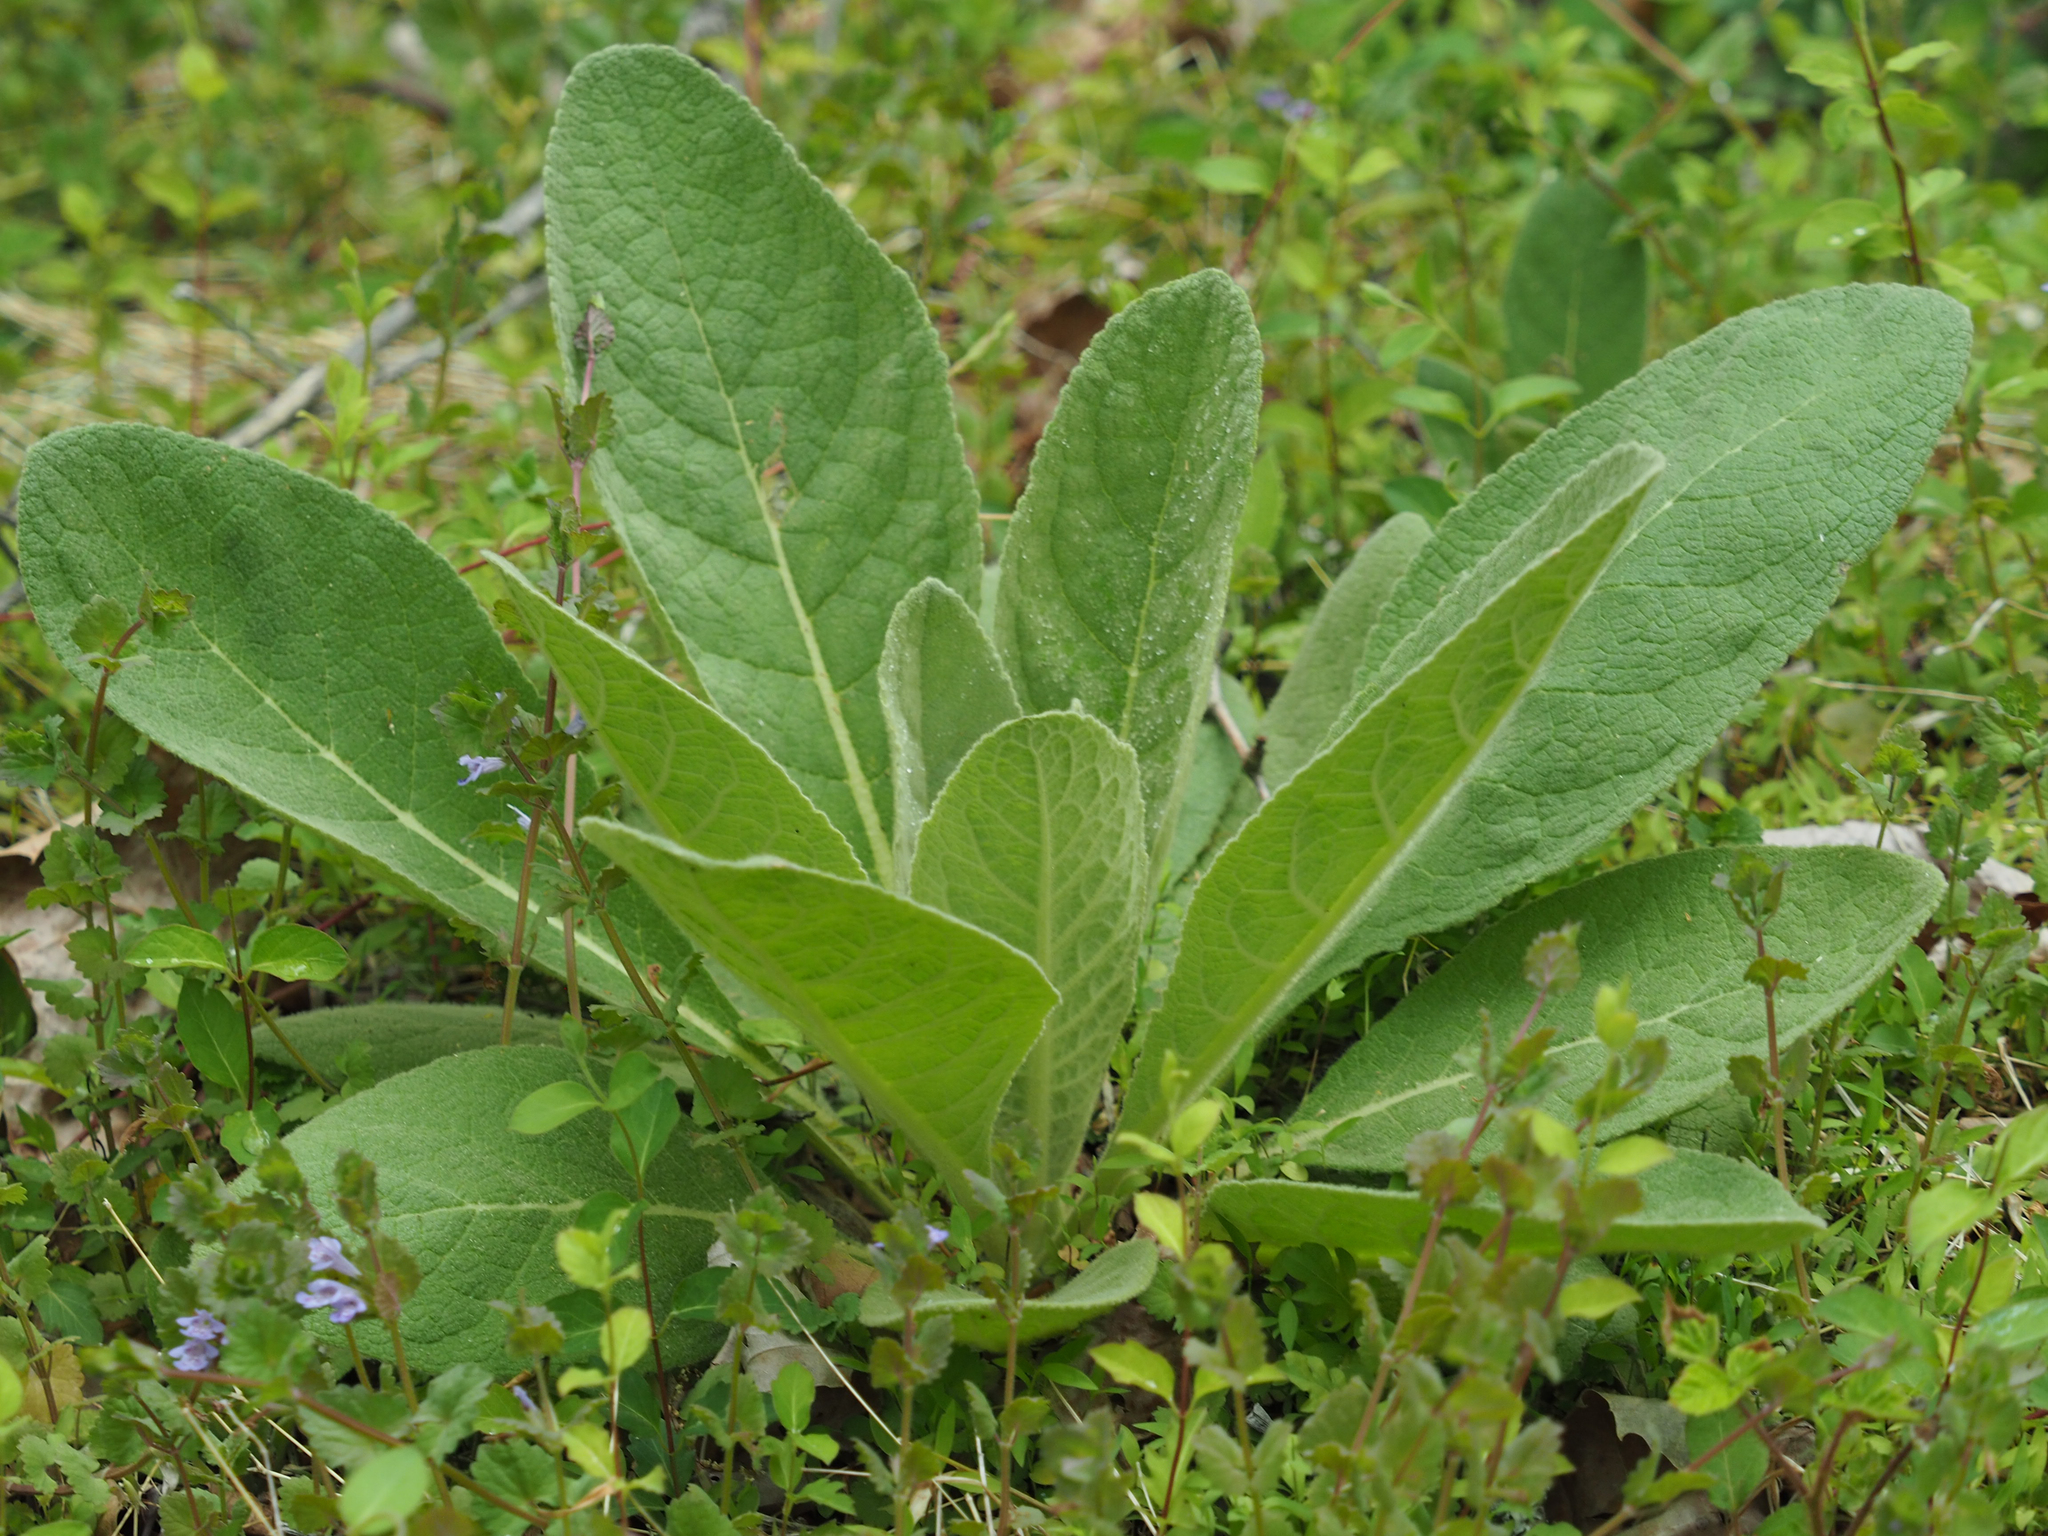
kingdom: Plantae
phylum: Tracheophyta
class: Magnoliopsida
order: Lamiales
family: Scrophulariaceae
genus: Verbascum
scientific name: Verbascum thapsus
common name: Common mullein
